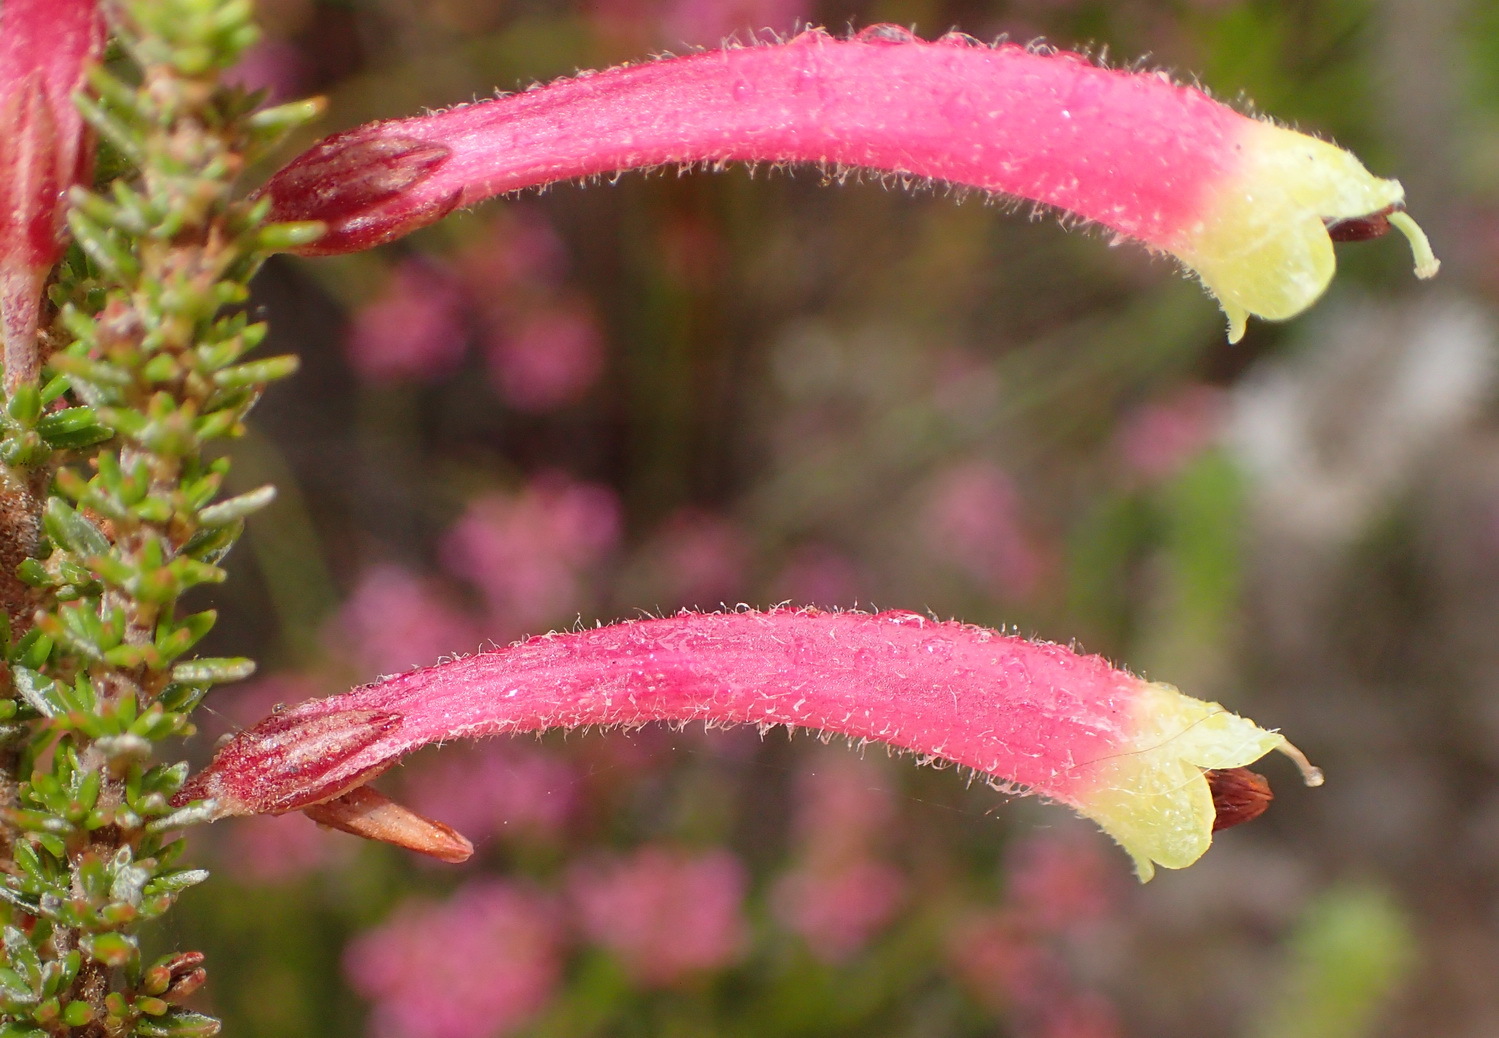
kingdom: Plantae
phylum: Tracheophyta
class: Magnoliopsida
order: Ericales
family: Ericaceae
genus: Erica
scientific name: Erica densifolia
